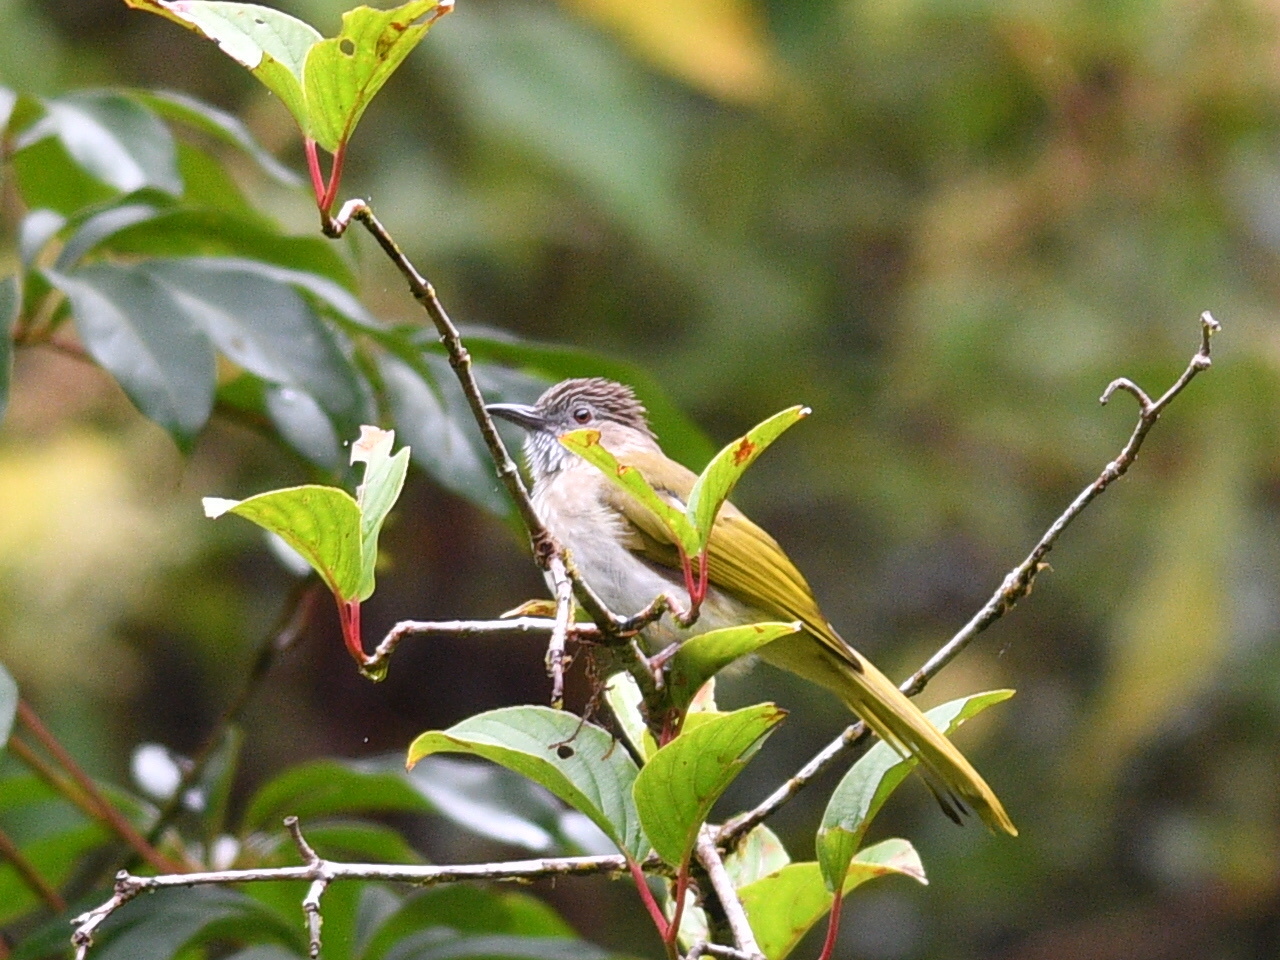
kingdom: Animalia
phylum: Chordata
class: Aves
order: Passeriformes
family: Pycnonotidae
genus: Ixos
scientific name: Ixos mcclellandii
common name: Mountain bulbul
